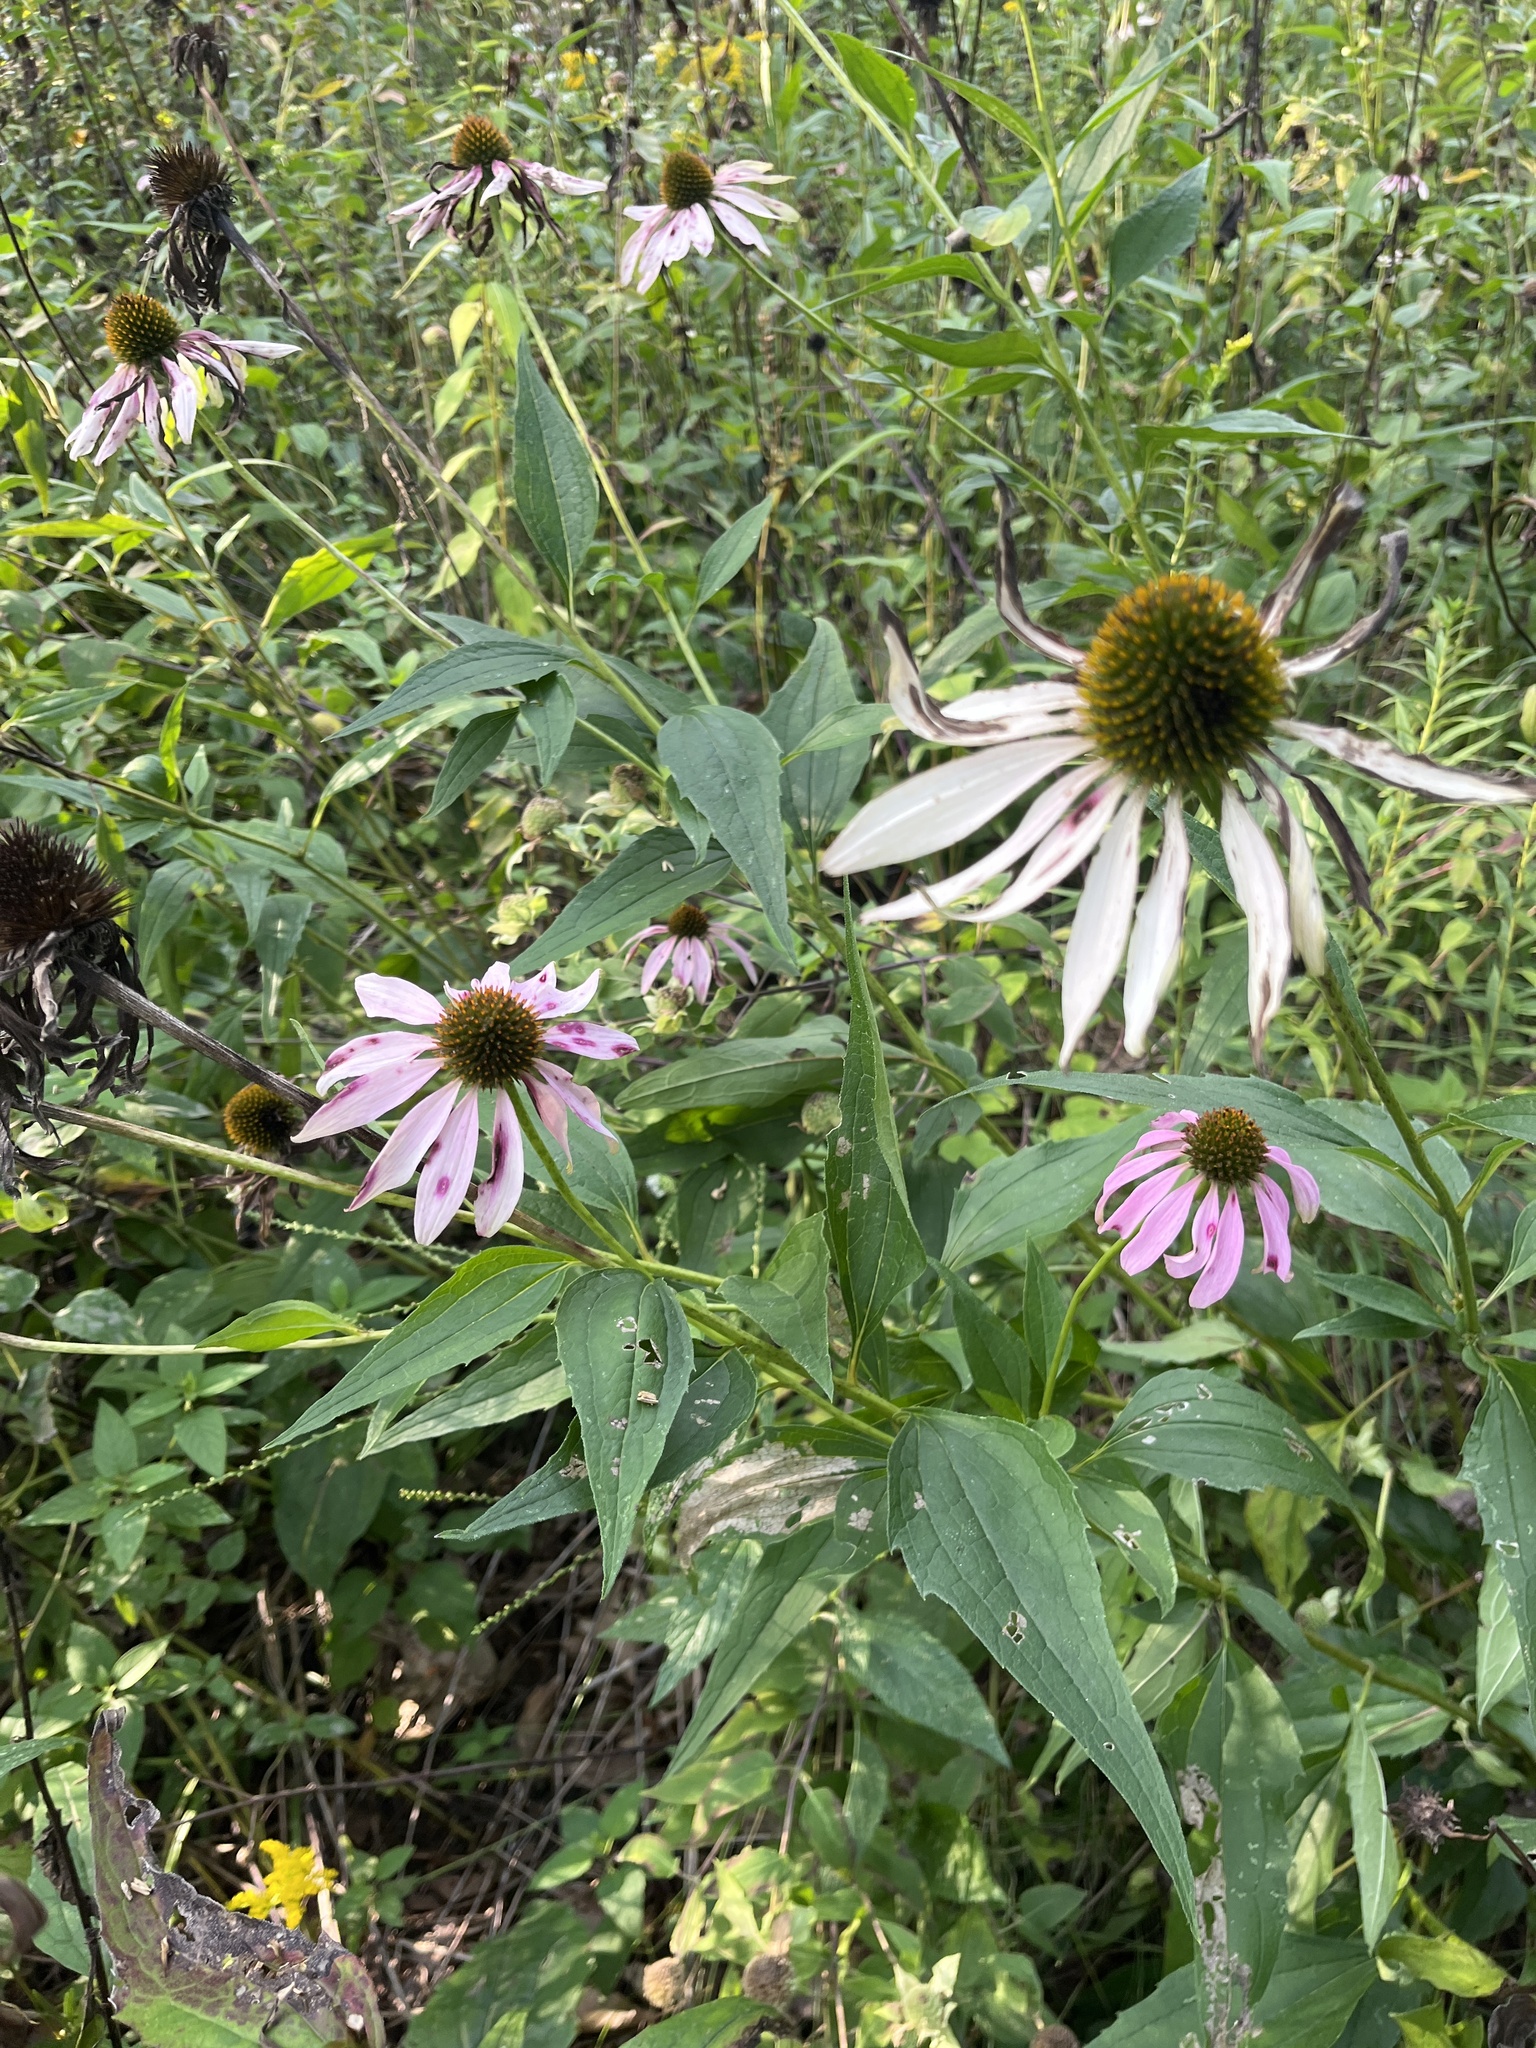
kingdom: Plantae
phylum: Tracheophyta
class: Magnoliopsida
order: Asterales
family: Asteraceae
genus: Echinacea
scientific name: Echinacea purpurea
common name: Broad-leaved purple coneflower
